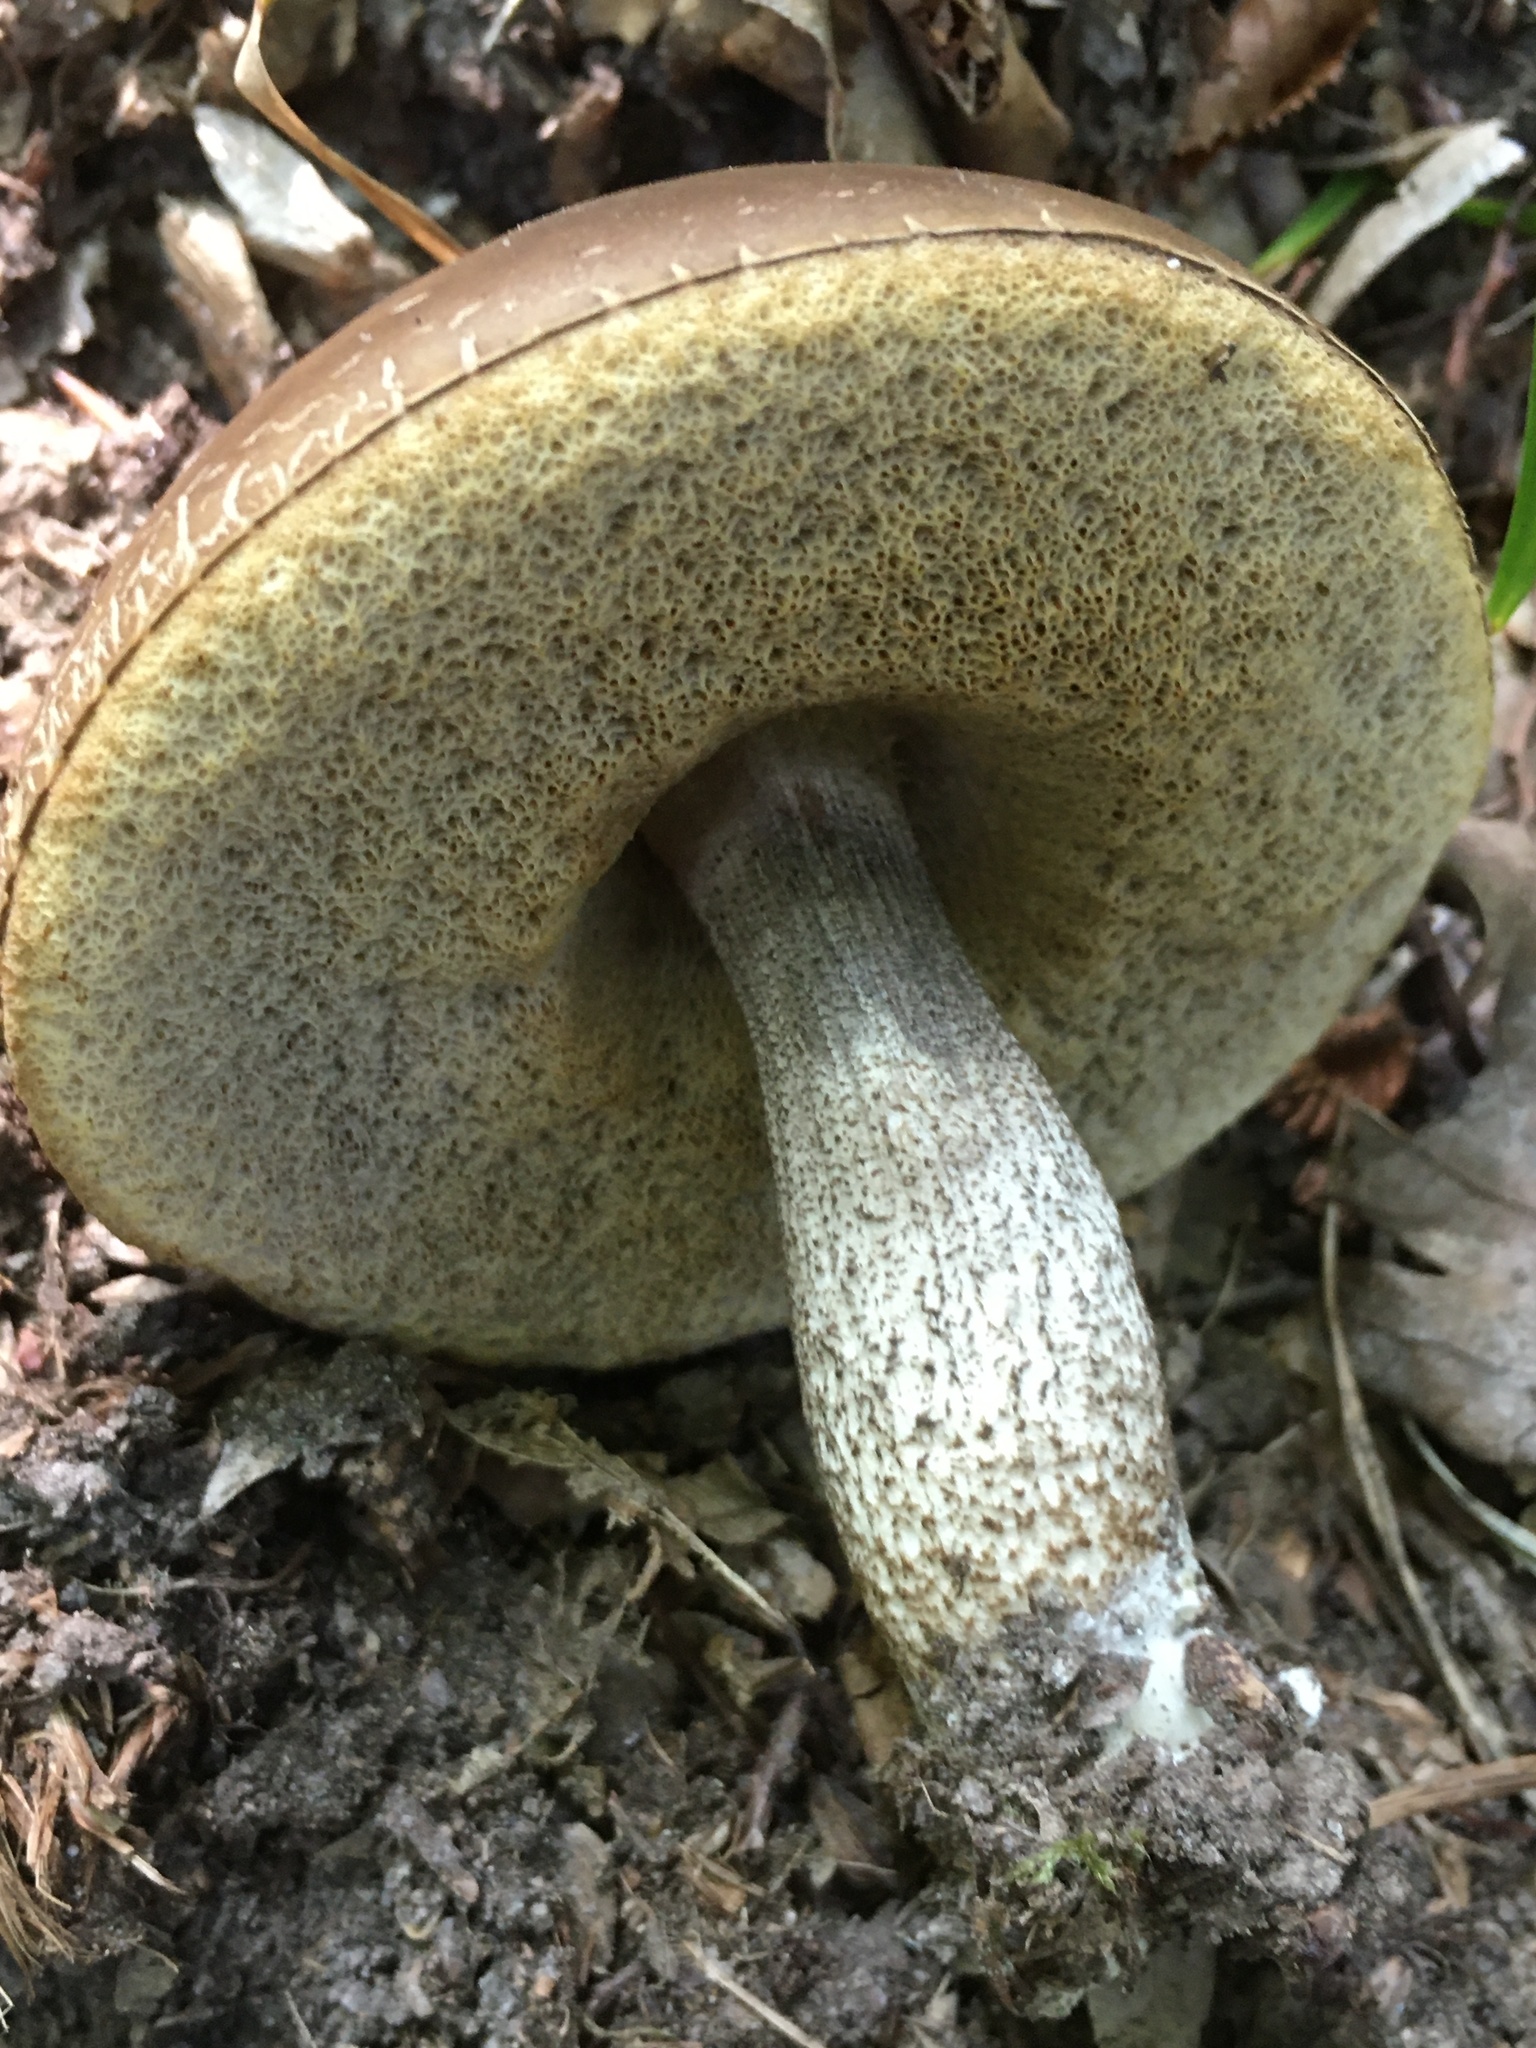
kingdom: Fungi
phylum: Basidiomycota
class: Agaricomycetes
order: Boletales
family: Boletaceae
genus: Leccinum
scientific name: Leccinum scabrum
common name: Blushing bolete
